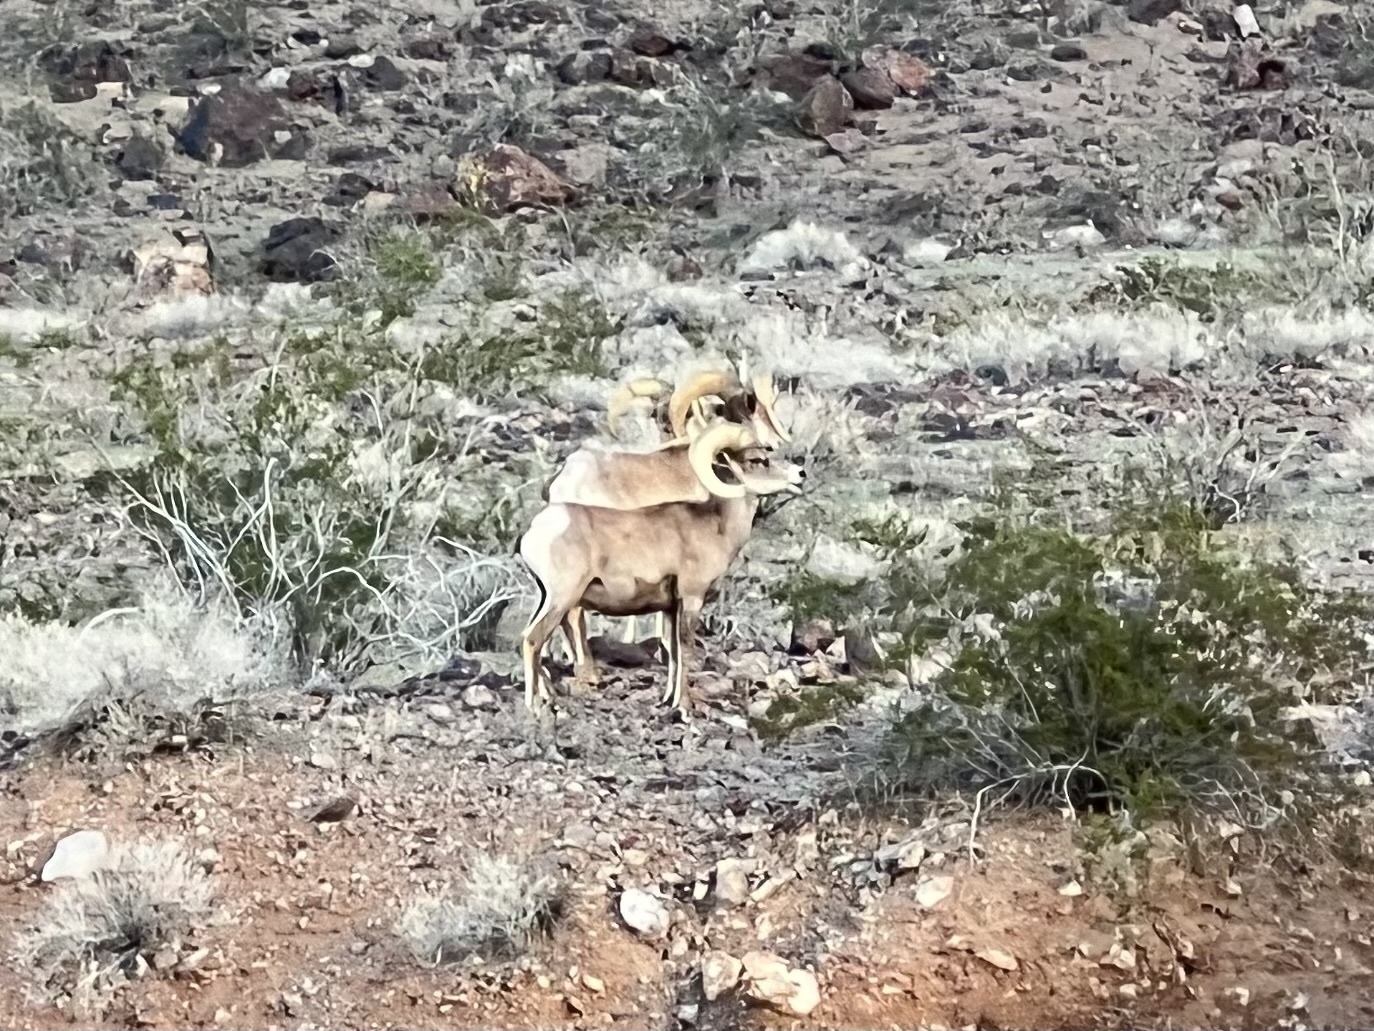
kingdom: Animalia
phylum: Chordata
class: Mammalia
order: Artiodactyla
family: Bovidae
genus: Ovis
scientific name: Ovis canadensis
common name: Bighorn sheep
